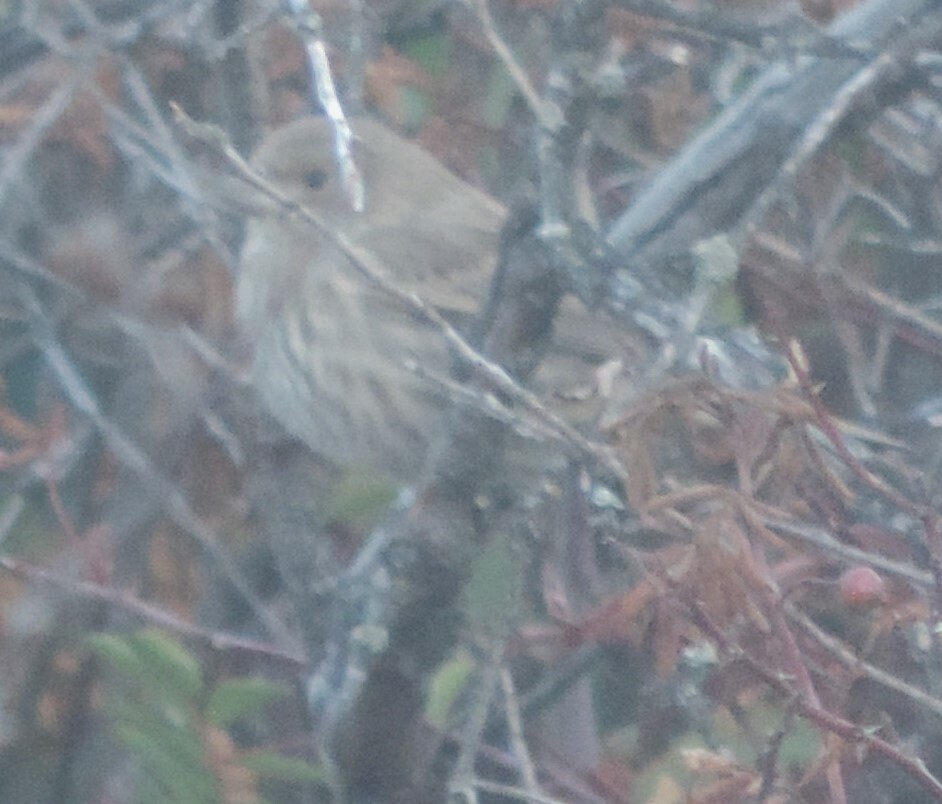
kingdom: Animalia
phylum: Chordata
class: Aves
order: Passeriformes
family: Fringillidae
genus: Haemorhous
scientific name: Haemorhous mexicanus
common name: House finch
